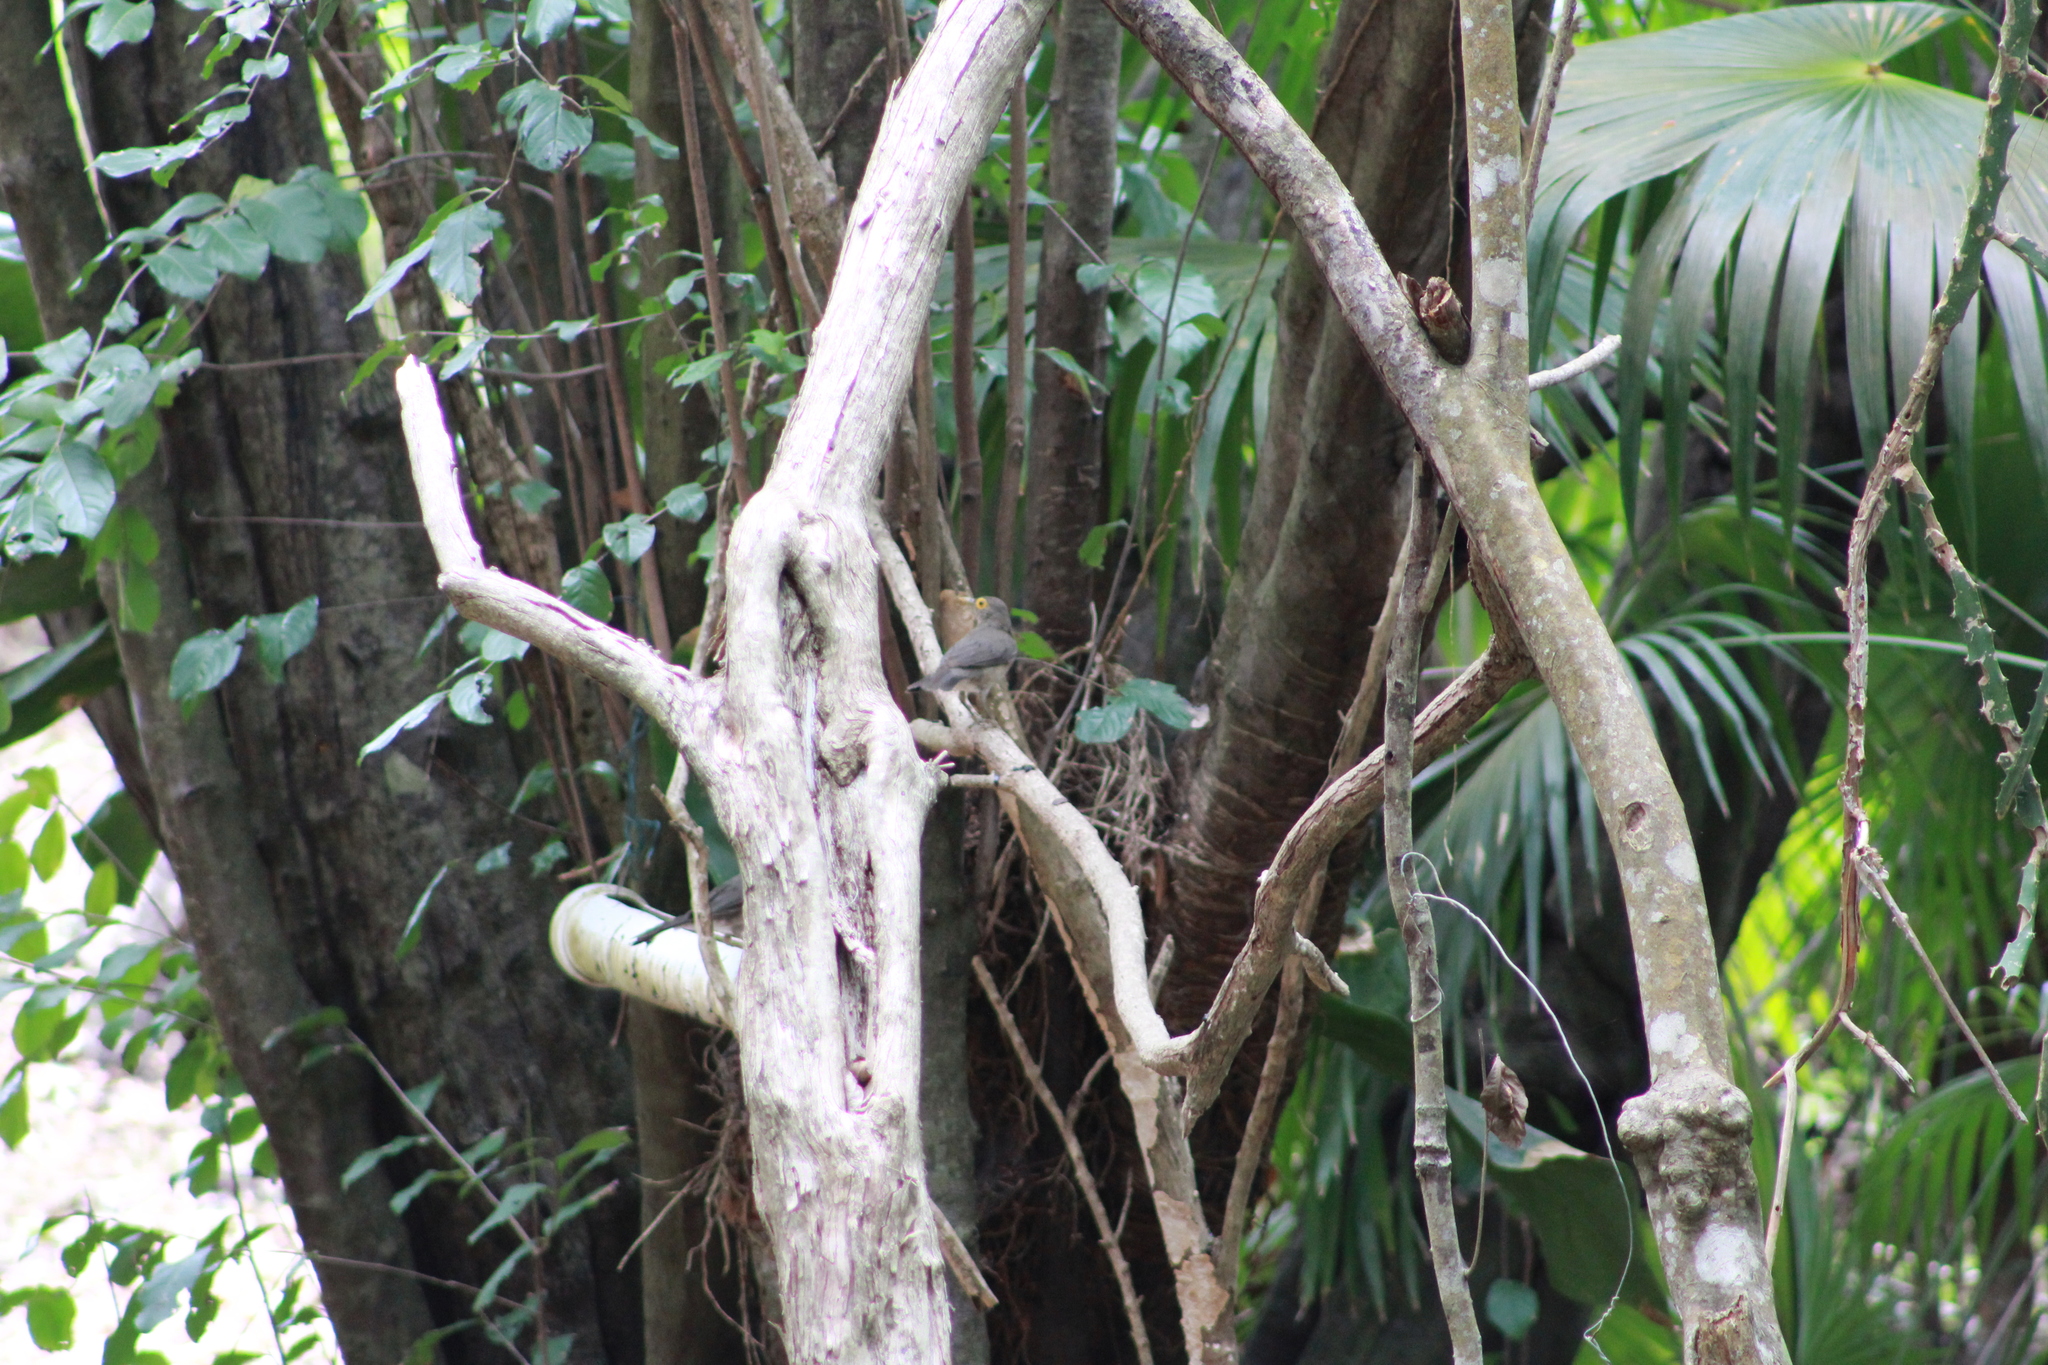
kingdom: Animalia
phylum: Chordata
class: Aves
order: Passeriformes
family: Turdidae
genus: Turdus
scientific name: Turdus nudigenis
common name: Spectacled thrush
